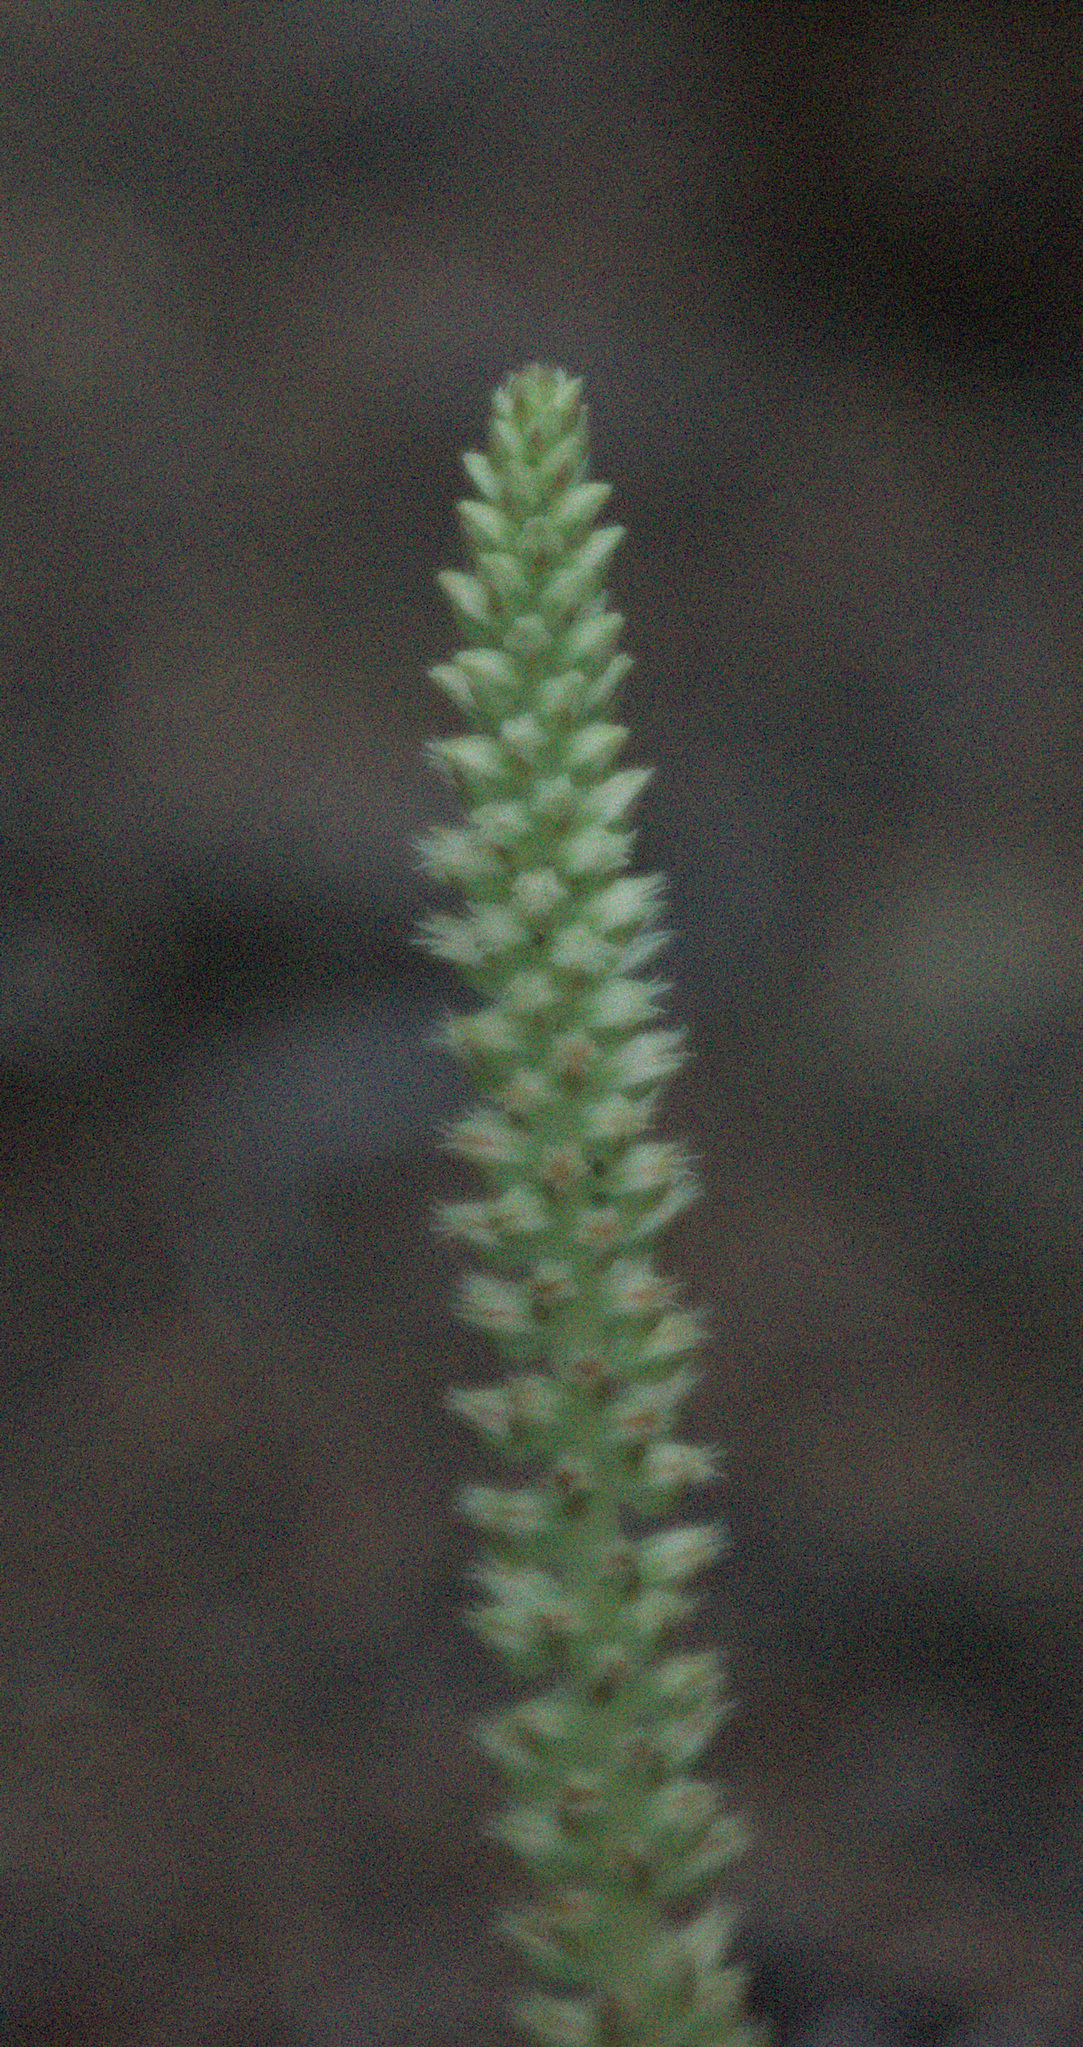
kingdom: Plantae
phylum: Tracheophyta
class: Magnoliopsida
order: Saxifragales
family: Crassulaceae
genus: Orostachys
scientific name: Orostachys spinosa
